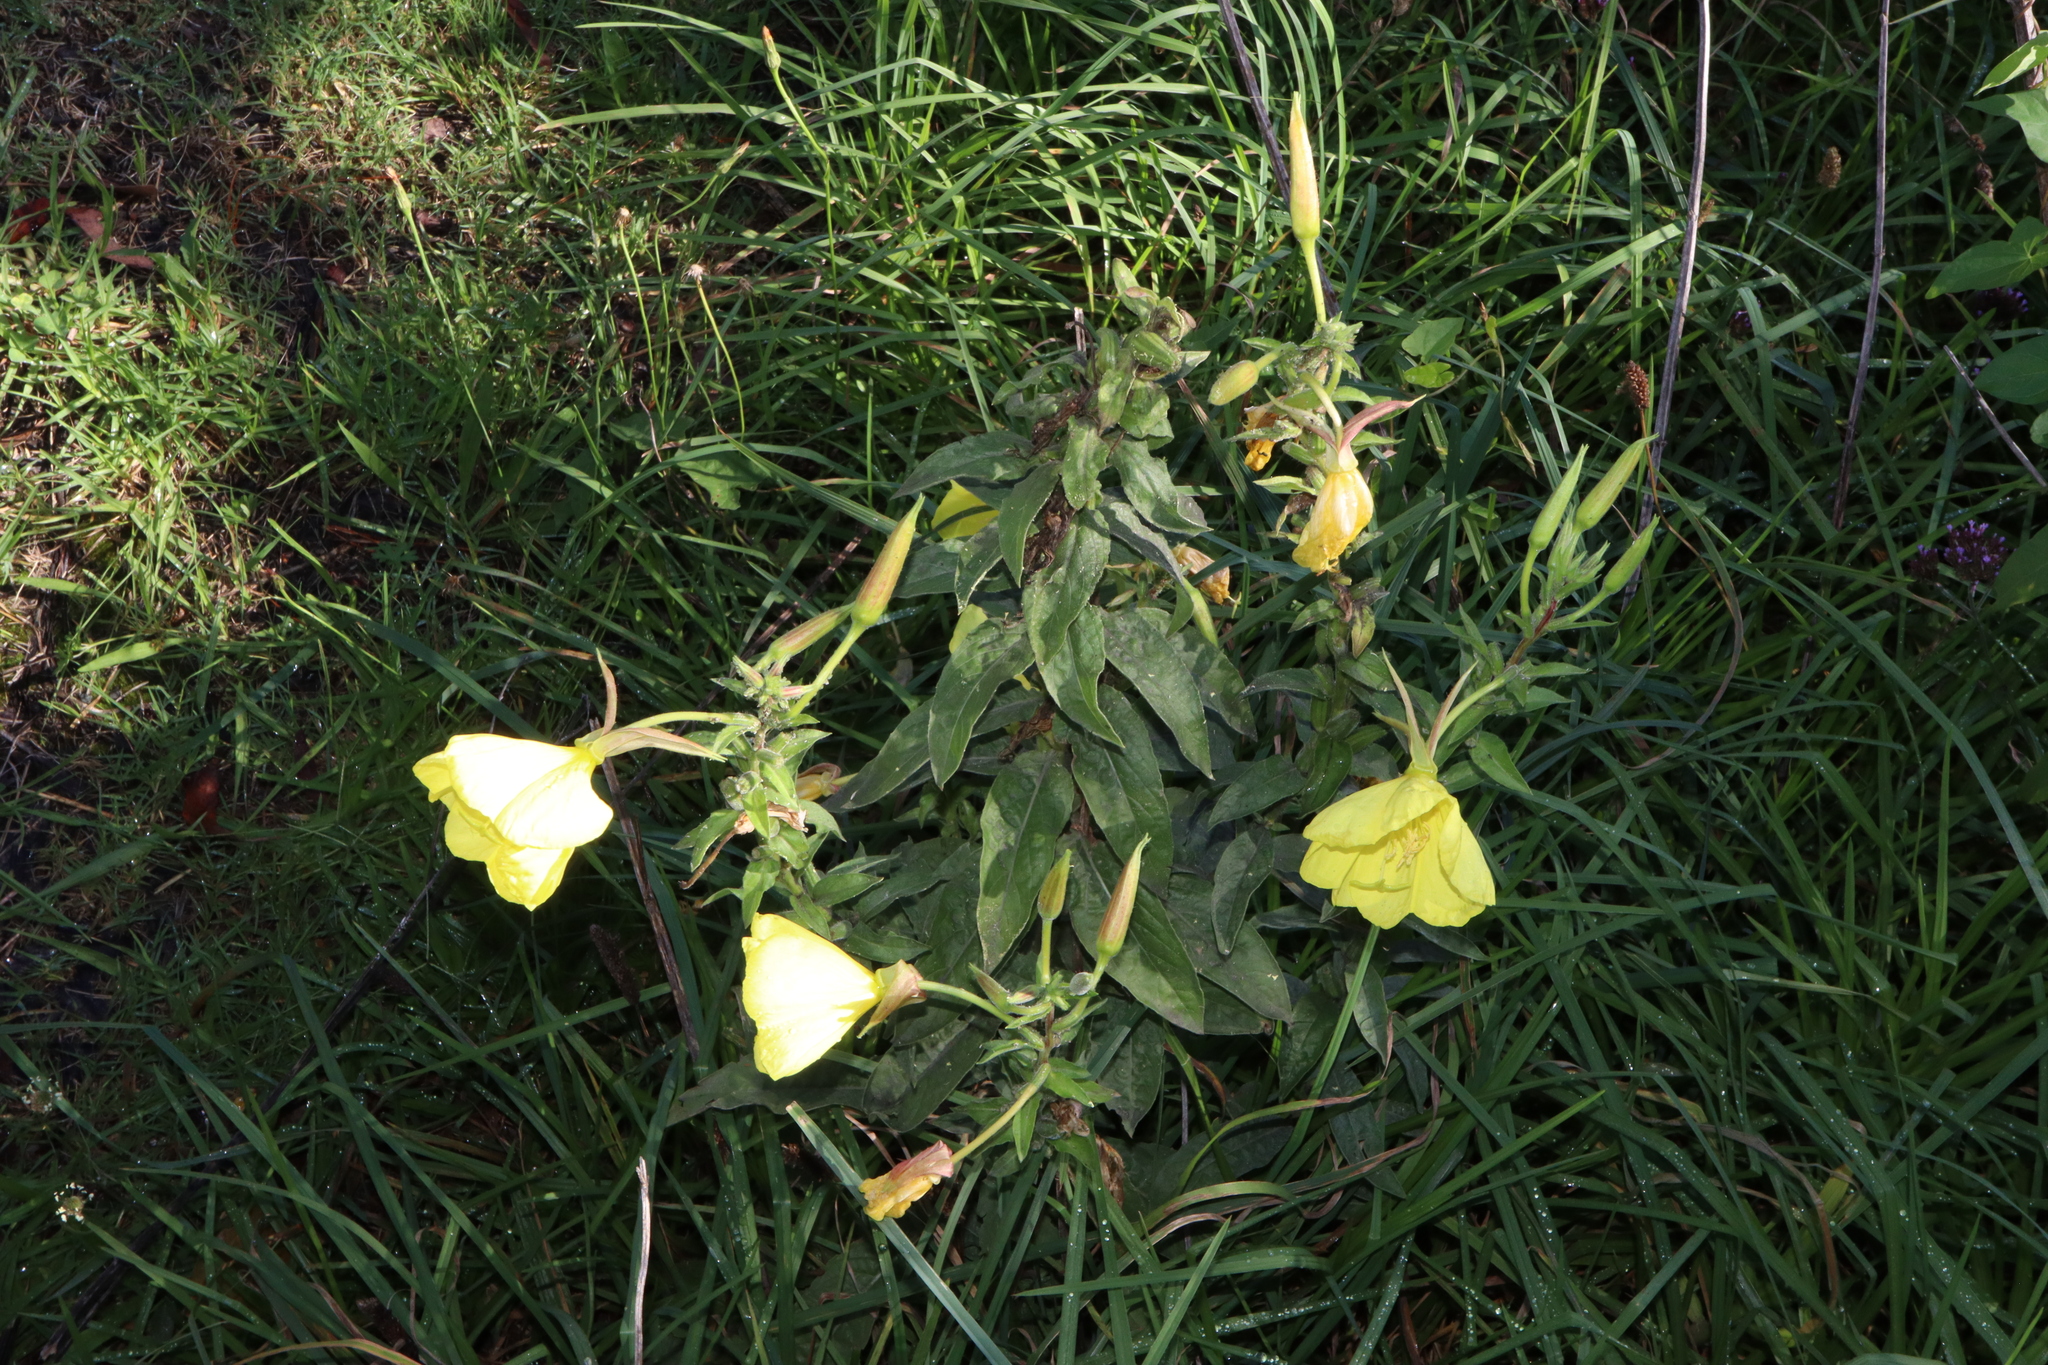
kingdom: Plantae
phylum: Tracheophyta
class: Magnoliopsida
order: Myrtales
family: Onagraceae
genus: Oenothera
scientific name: Oenothera glazioviana
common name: Large-flowered evening-primrose
